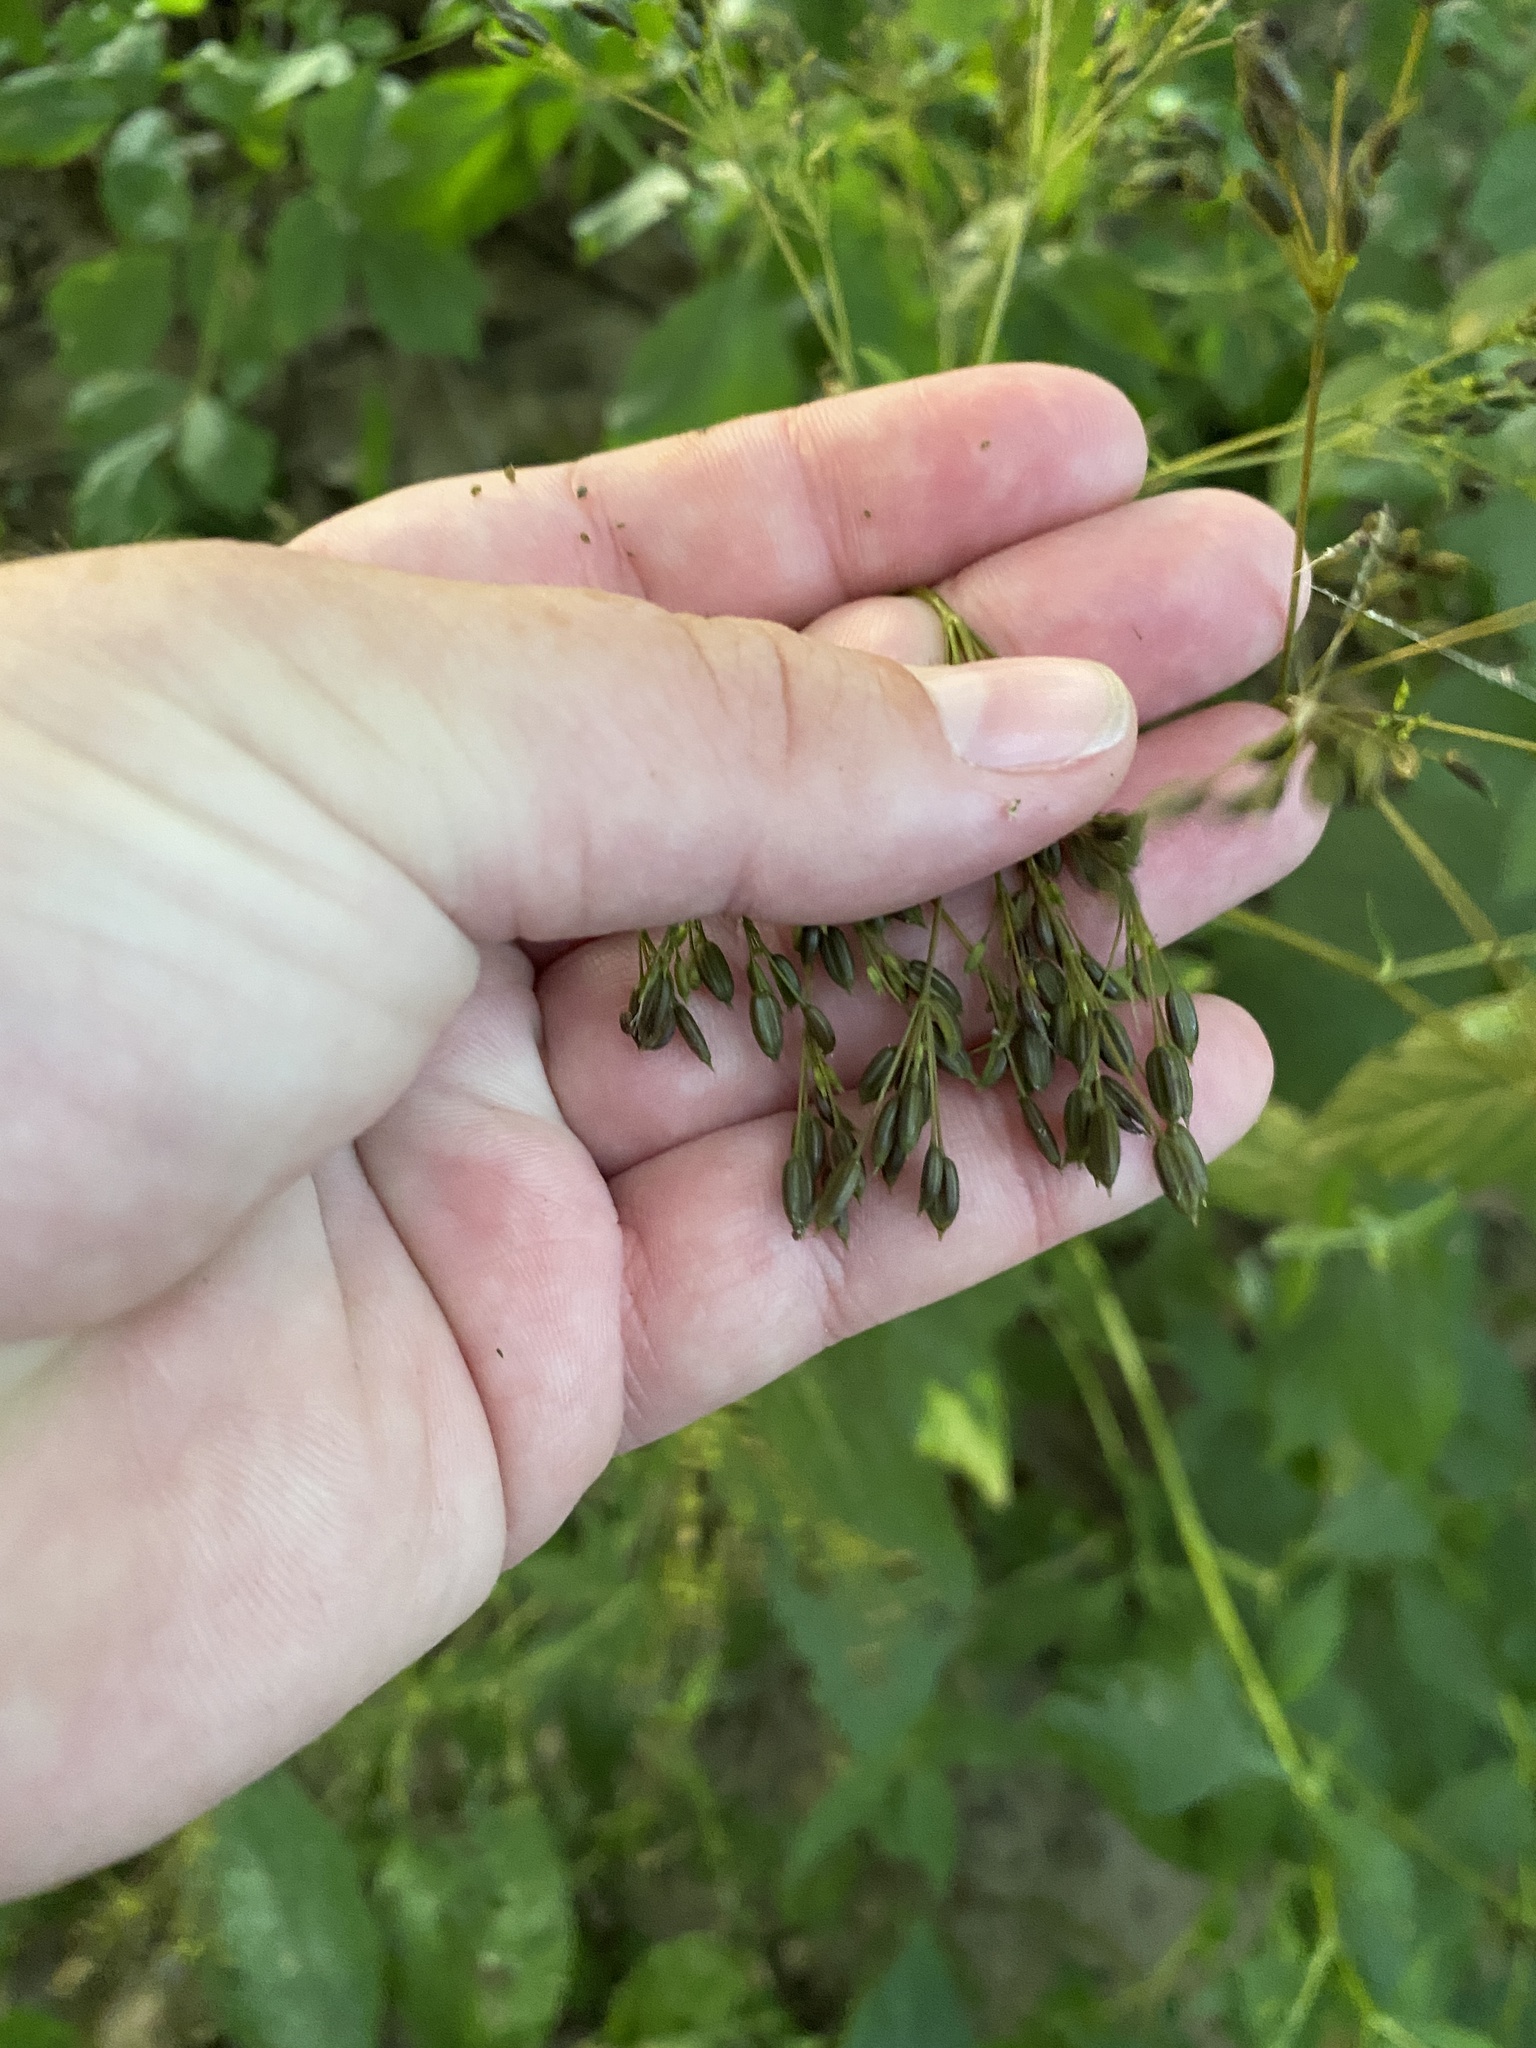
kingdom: Plantae
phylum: Tracheophyta
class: Magnoliopsida
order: Apiales
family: Apiaceae
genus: Cryptotaenia
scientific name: Cryptotaenia canadensis
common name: Honewort
